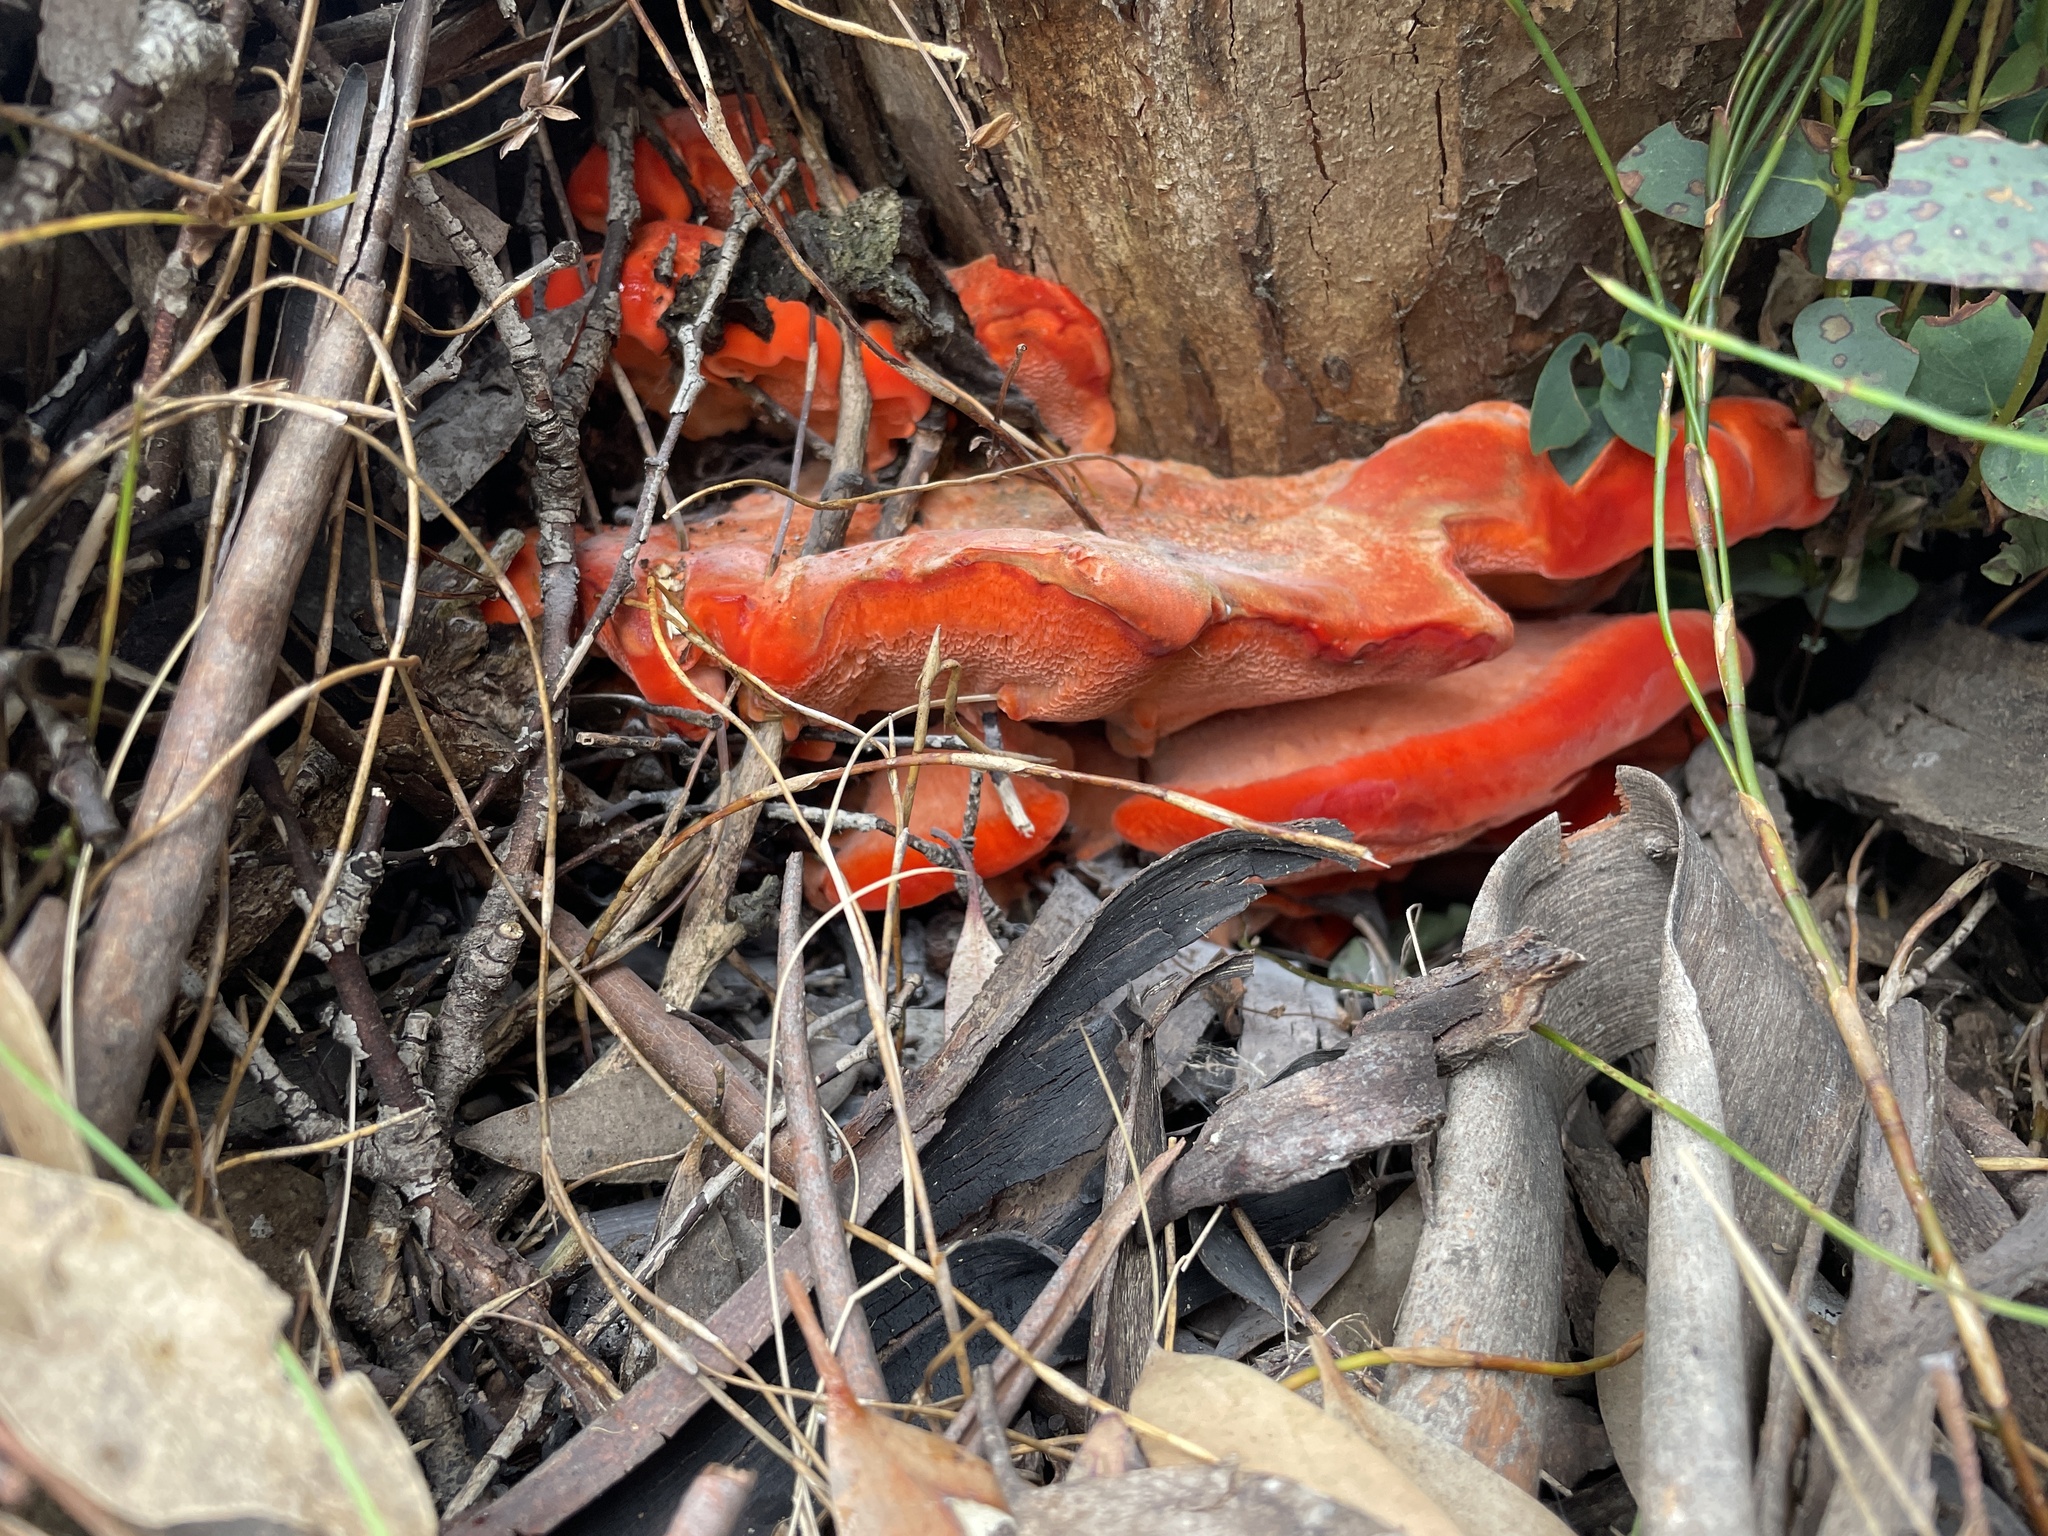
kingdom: Fungi
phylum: Basidiomycota
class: Agaricomycetes
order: Polyporales
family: Incrustoporiaceae
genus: Tyromyces
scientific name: Tyromyces pulcherrimus
